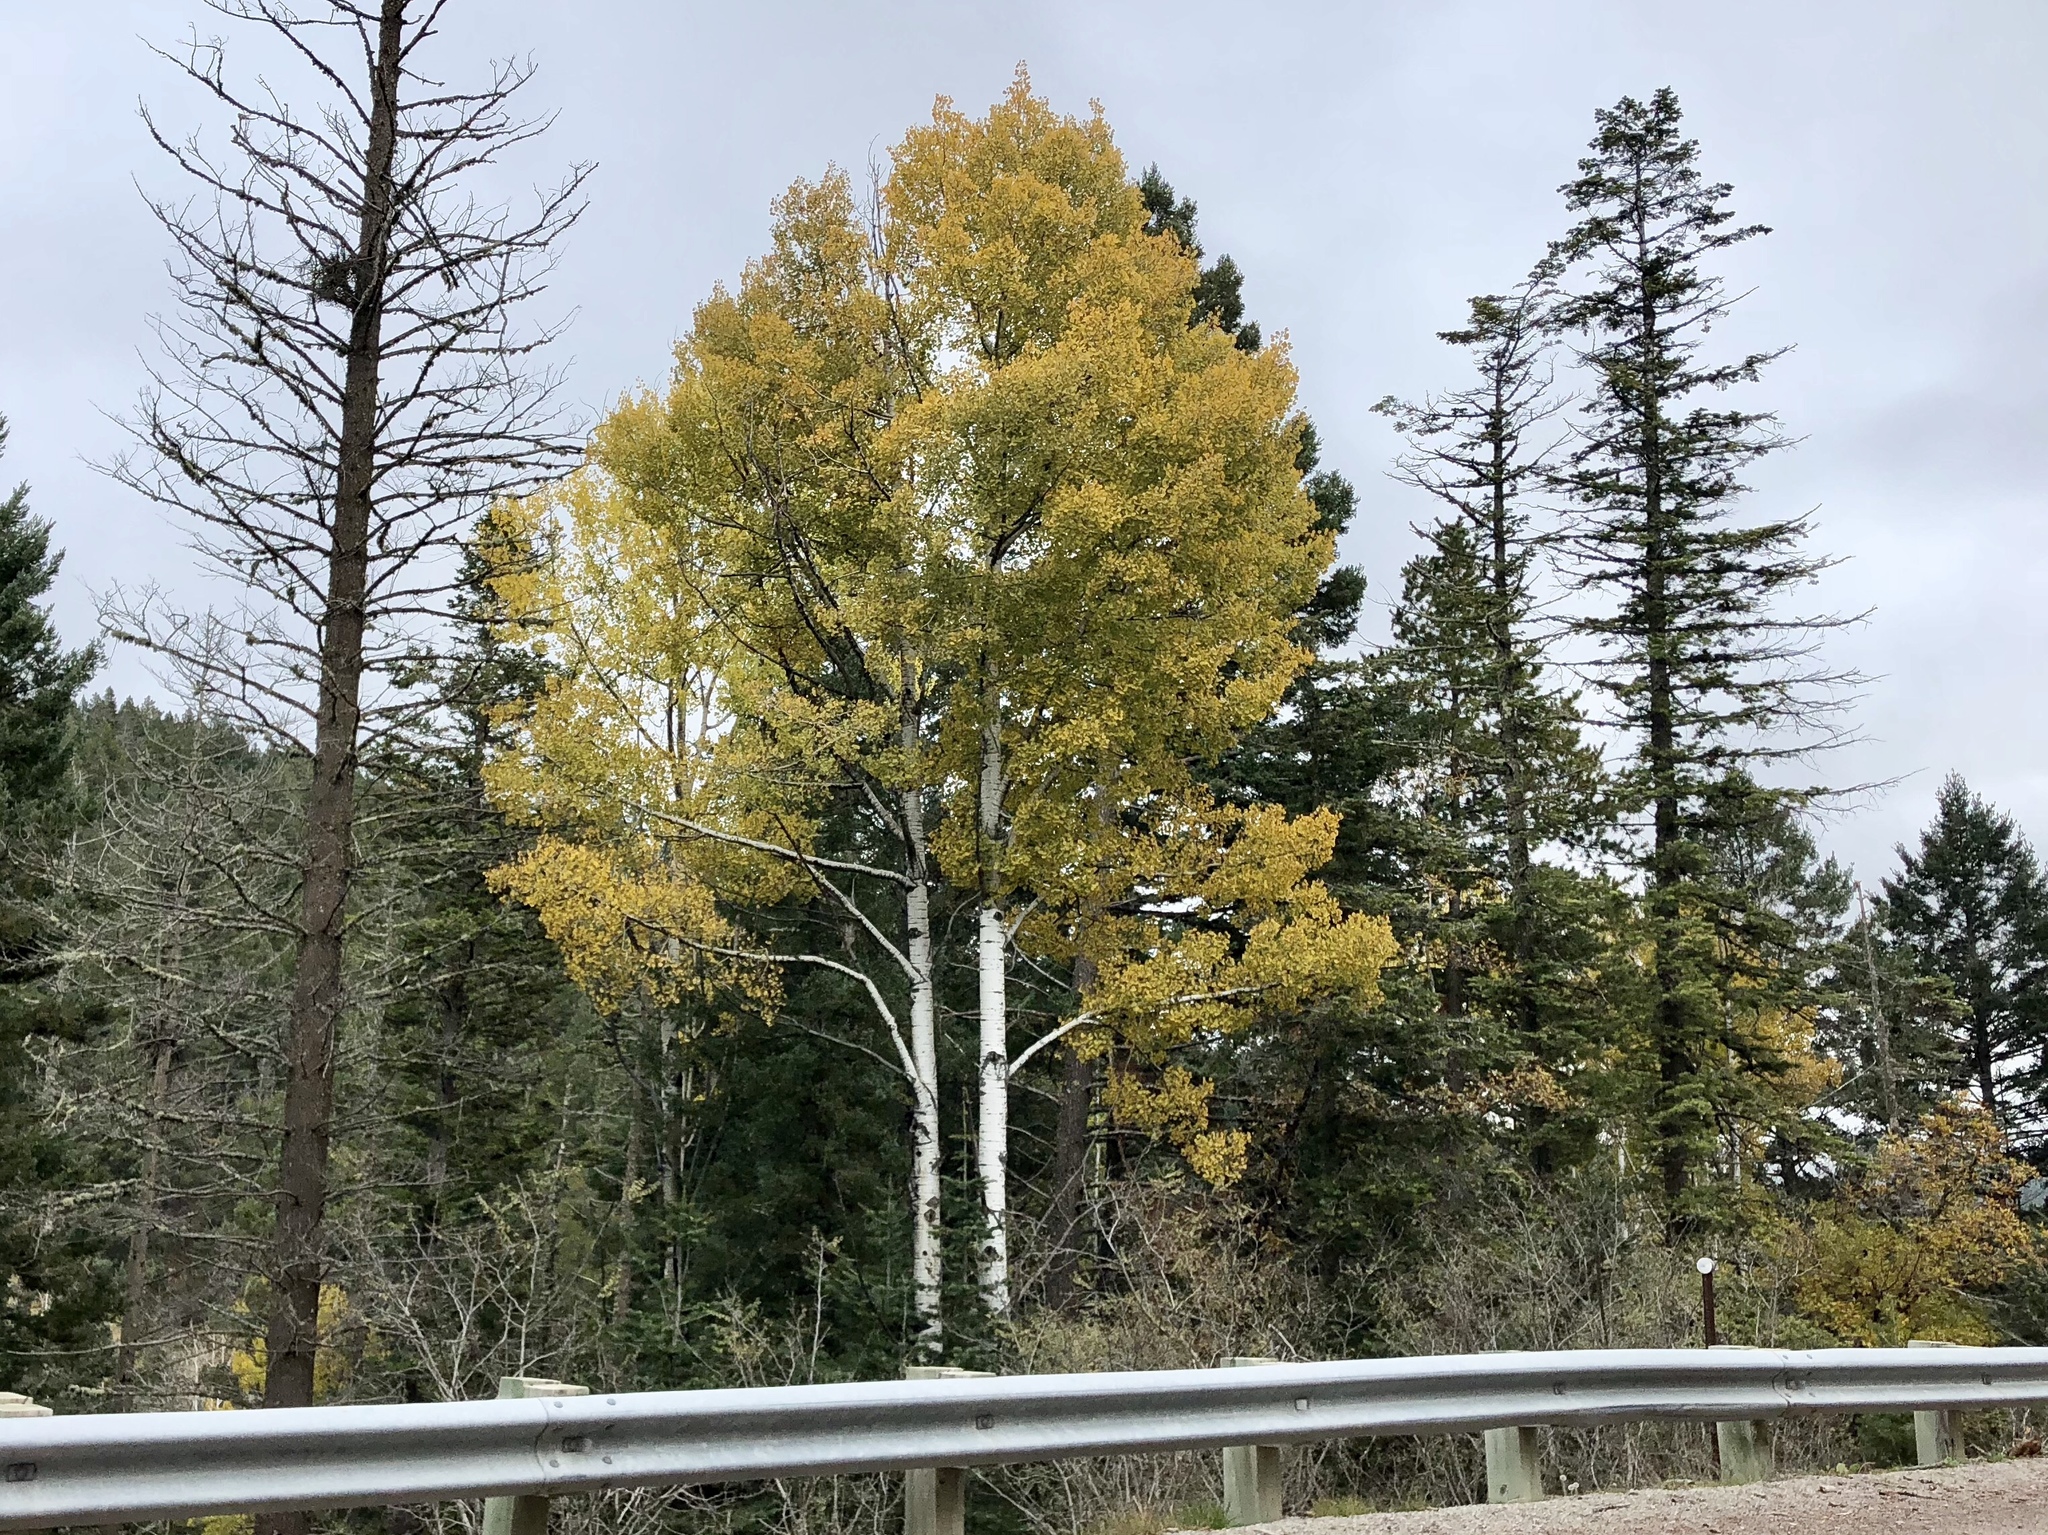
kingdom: Plantae
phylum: Tracheophyta
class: Magnoliopsida
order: Malpighiales
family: Salicaceae
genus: Populus
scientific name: Populus tremuloides
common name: Quaking aspen
